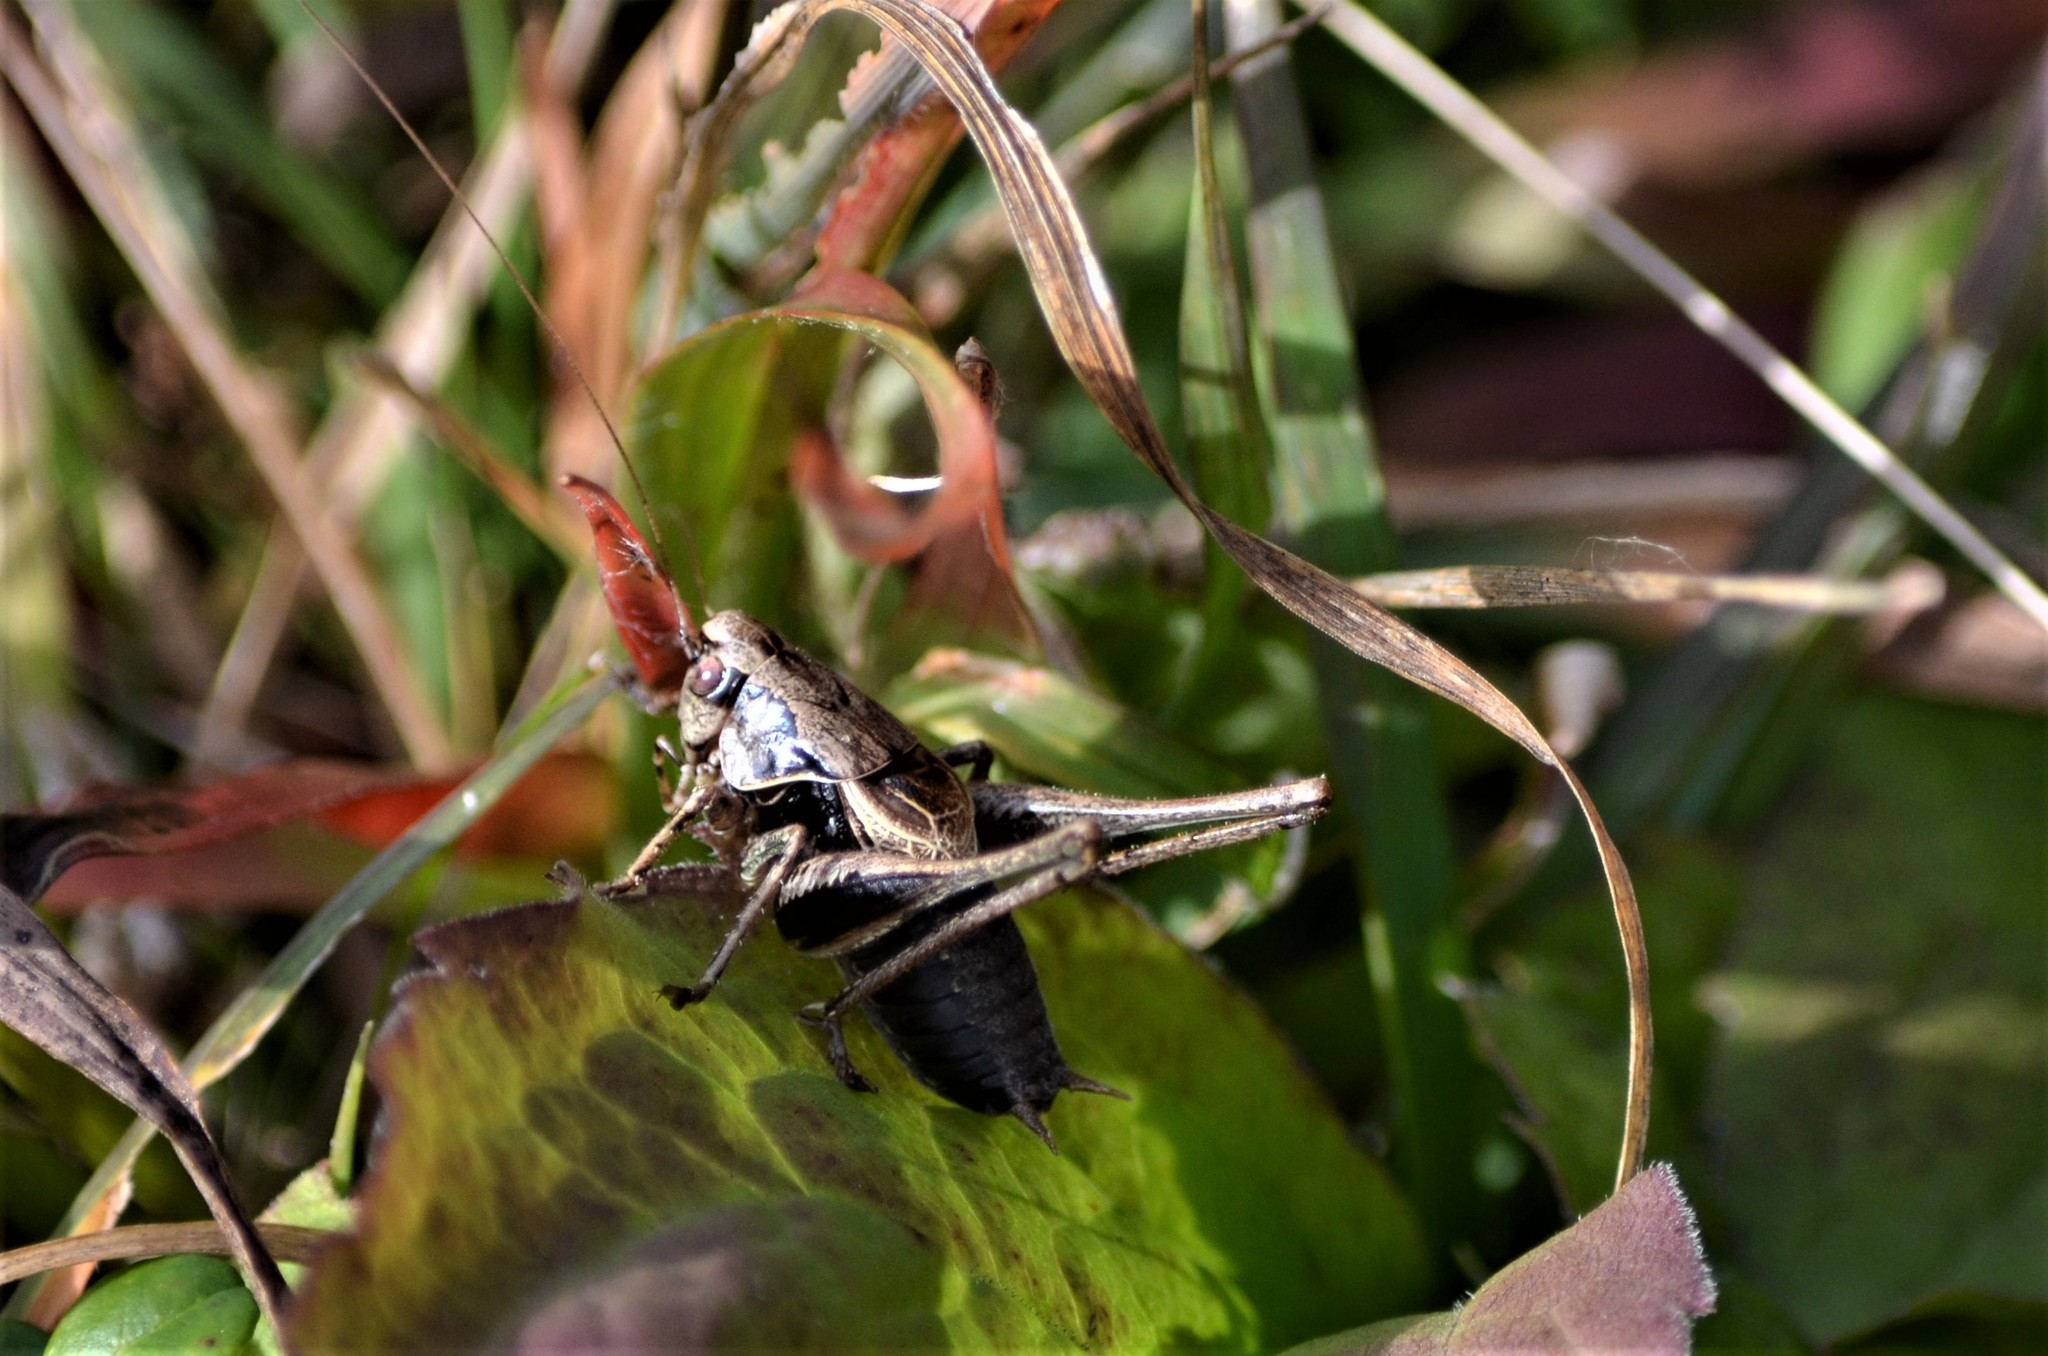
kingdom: Animalia
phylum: Arthropoda
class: Insecta
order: Orthoptera
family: Tettigoniidae
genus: Pholidoptera
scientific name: Pholidoptera griseoaptera
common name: Dark bush-cricket
